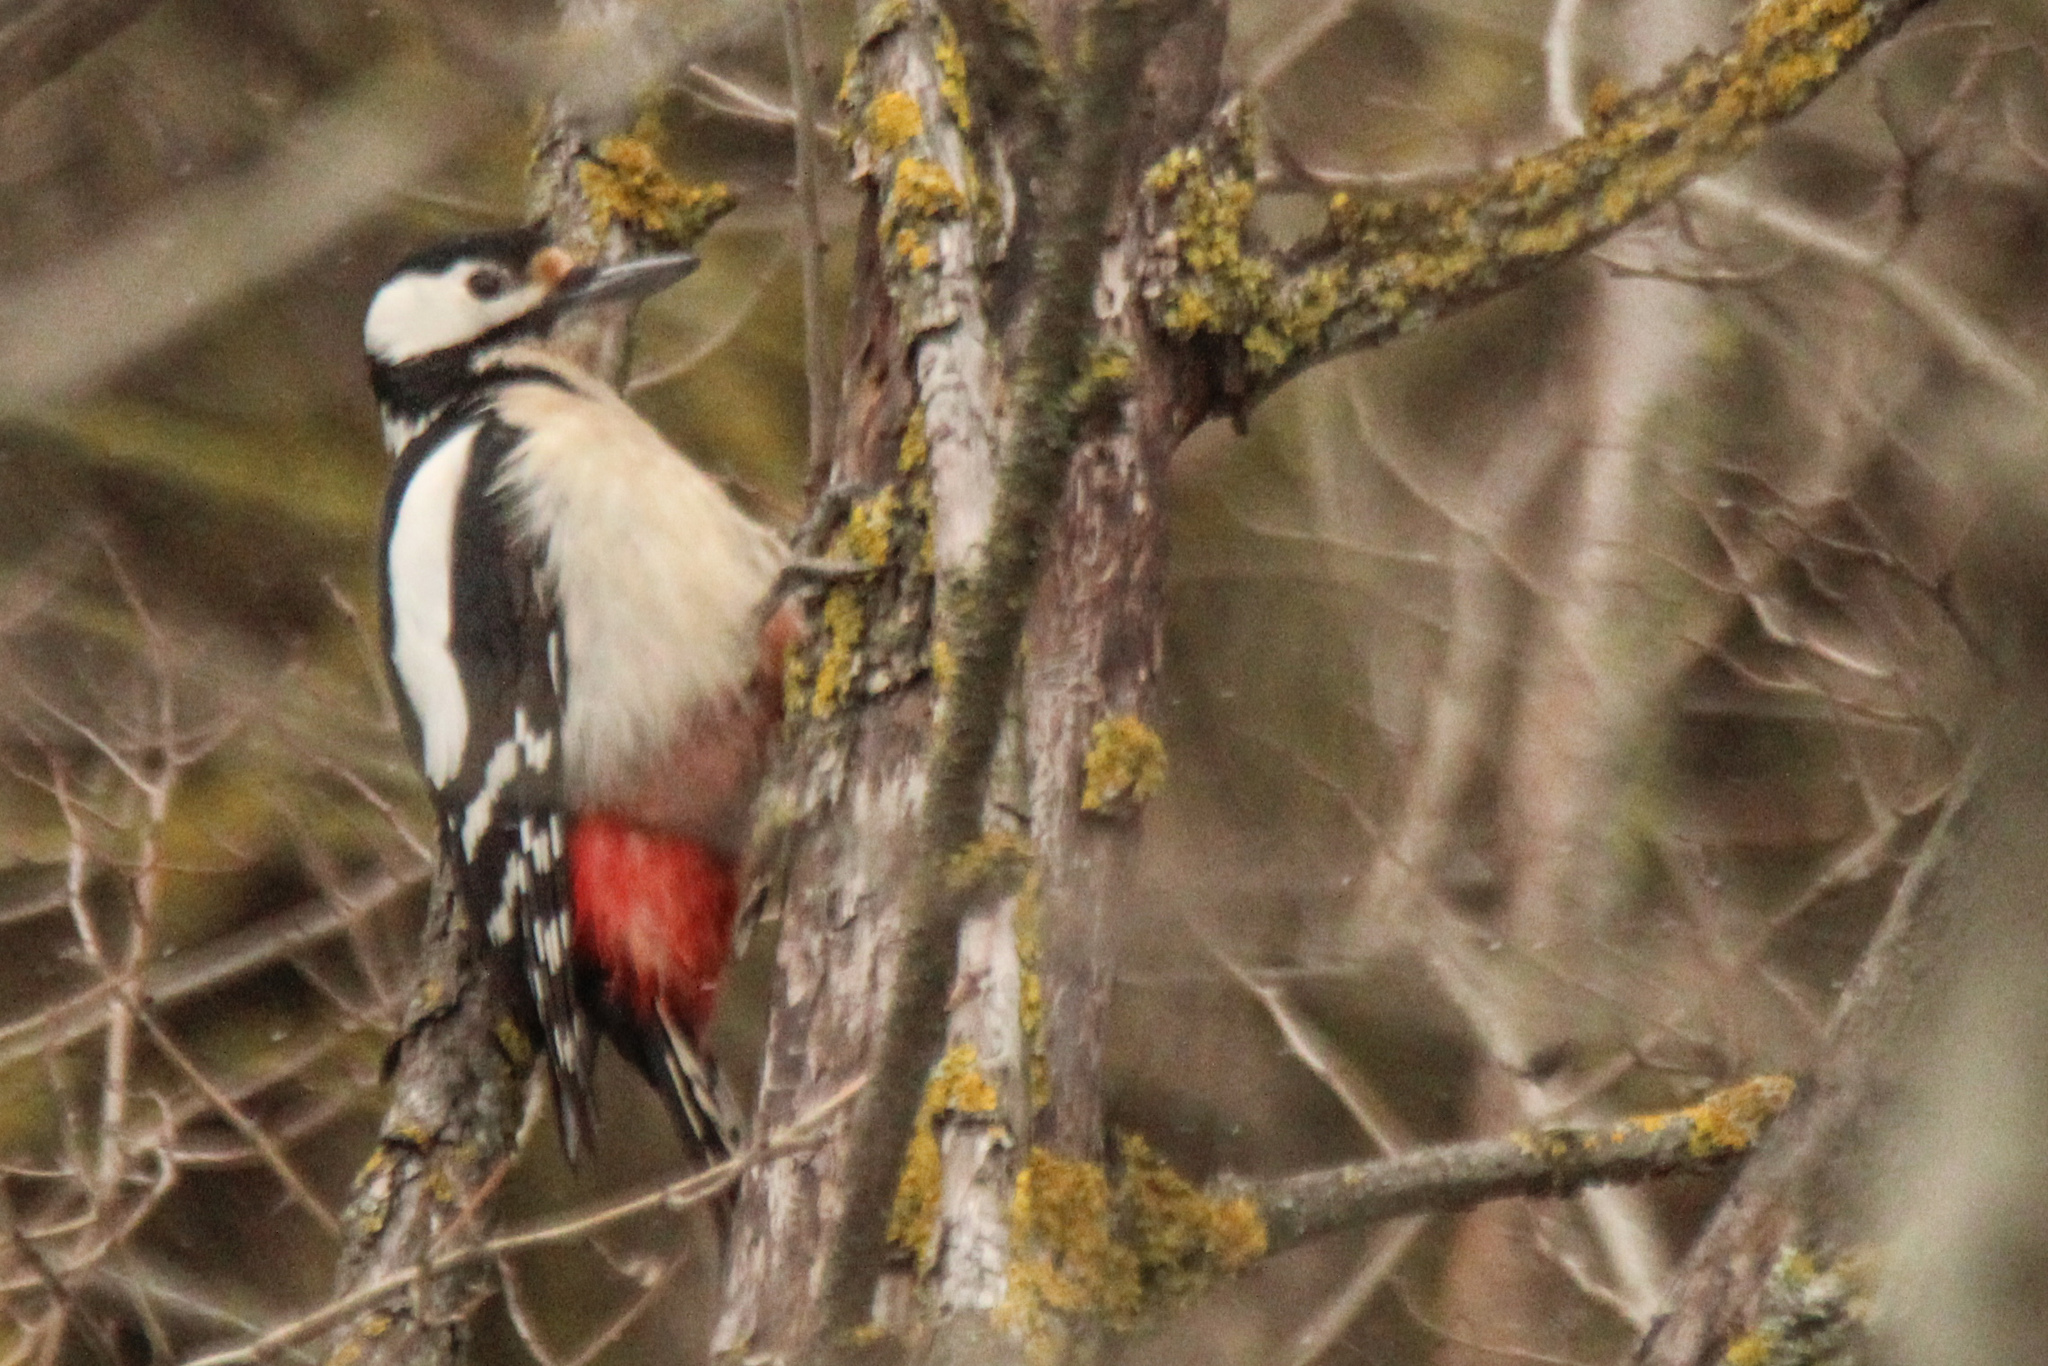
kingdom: Animalia
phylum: Chordata
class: Aves
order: Piciformes
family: Picidae
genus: Dendrocopos
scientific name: Dendrocopos major
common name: Great spotted woodpecker
